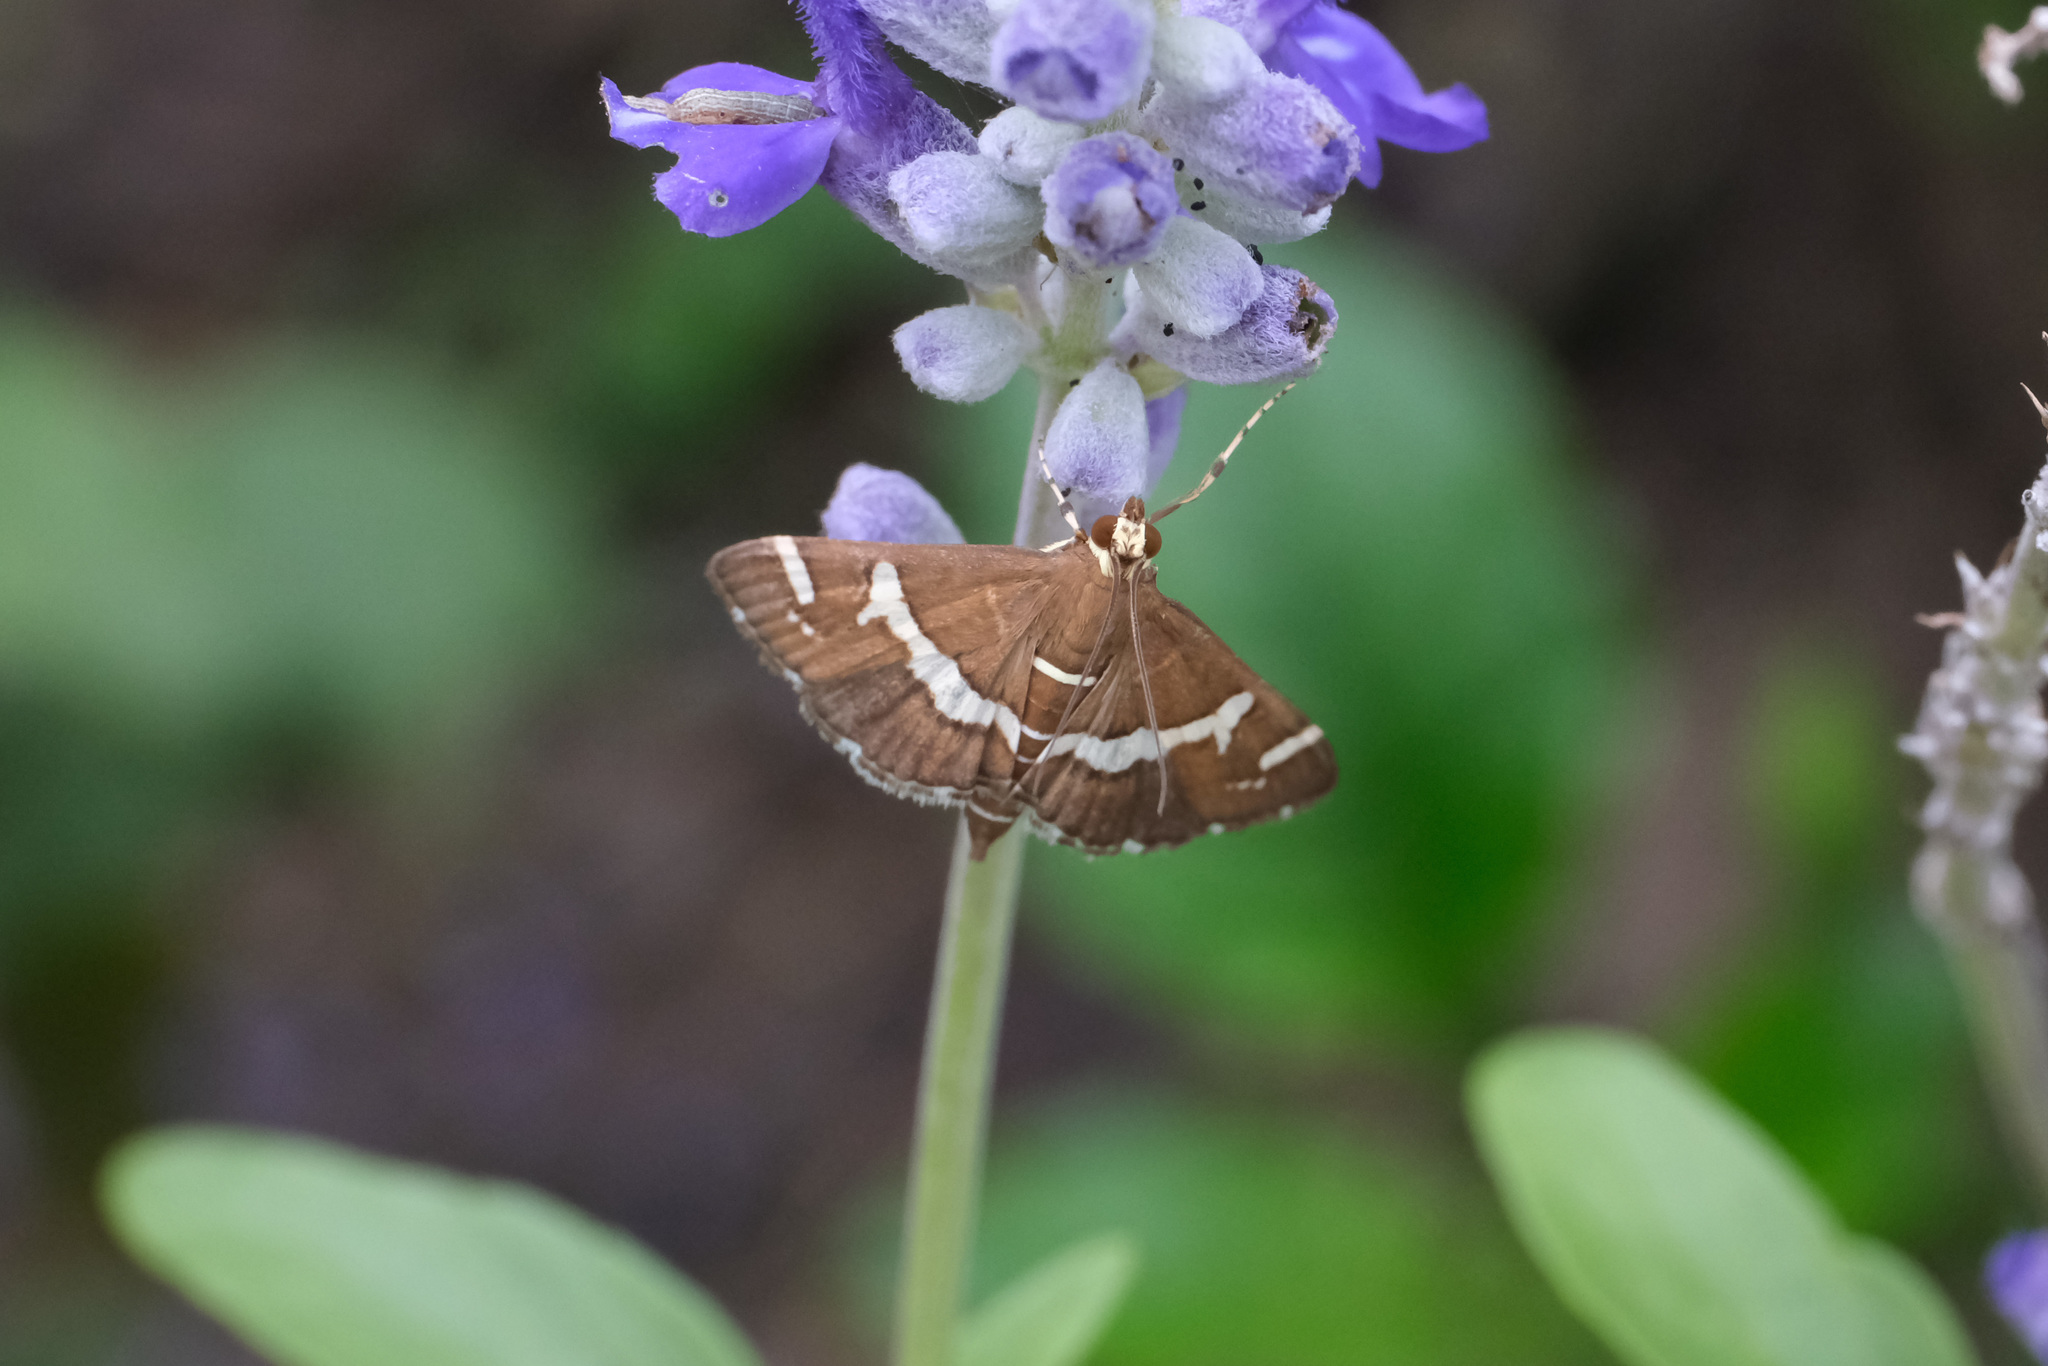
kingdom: Animalia
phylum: Arthropoda
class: Insecta
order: Lepidoptera
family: Crambidae
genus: Spoladea
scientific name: Spoladea recurvalis
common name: Beet webworm moth
